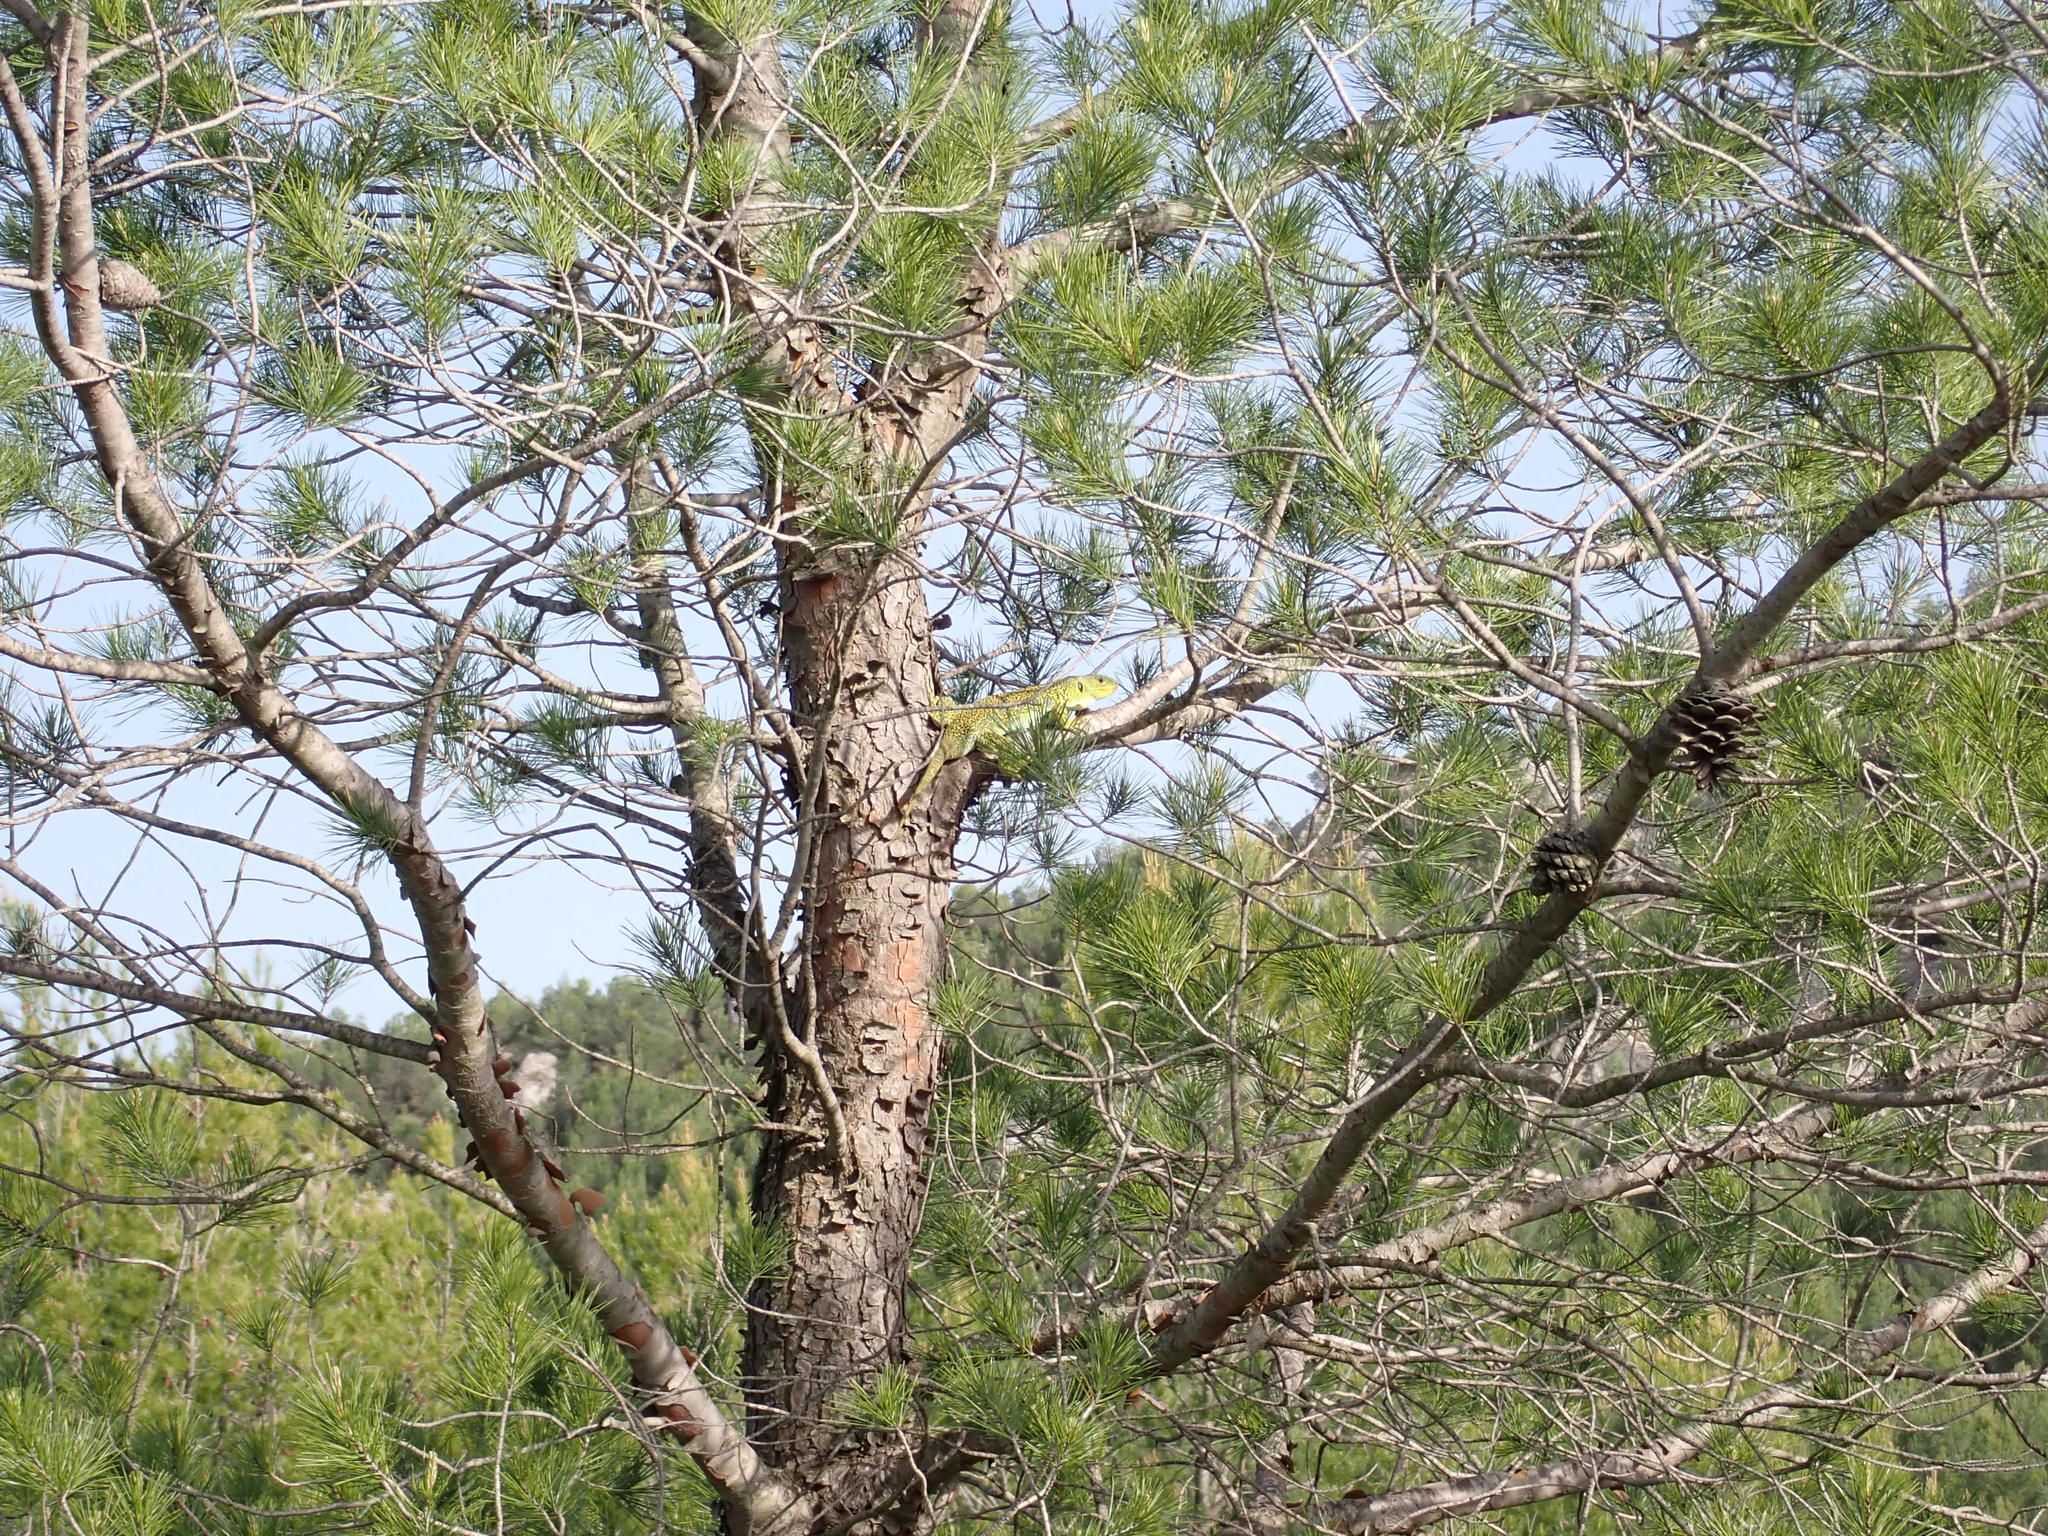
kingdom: Animalia
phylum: Chordata
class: Squamata
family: Lacertidae
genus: Timon
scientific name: Timon lepidus
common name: Ocellated lizard
